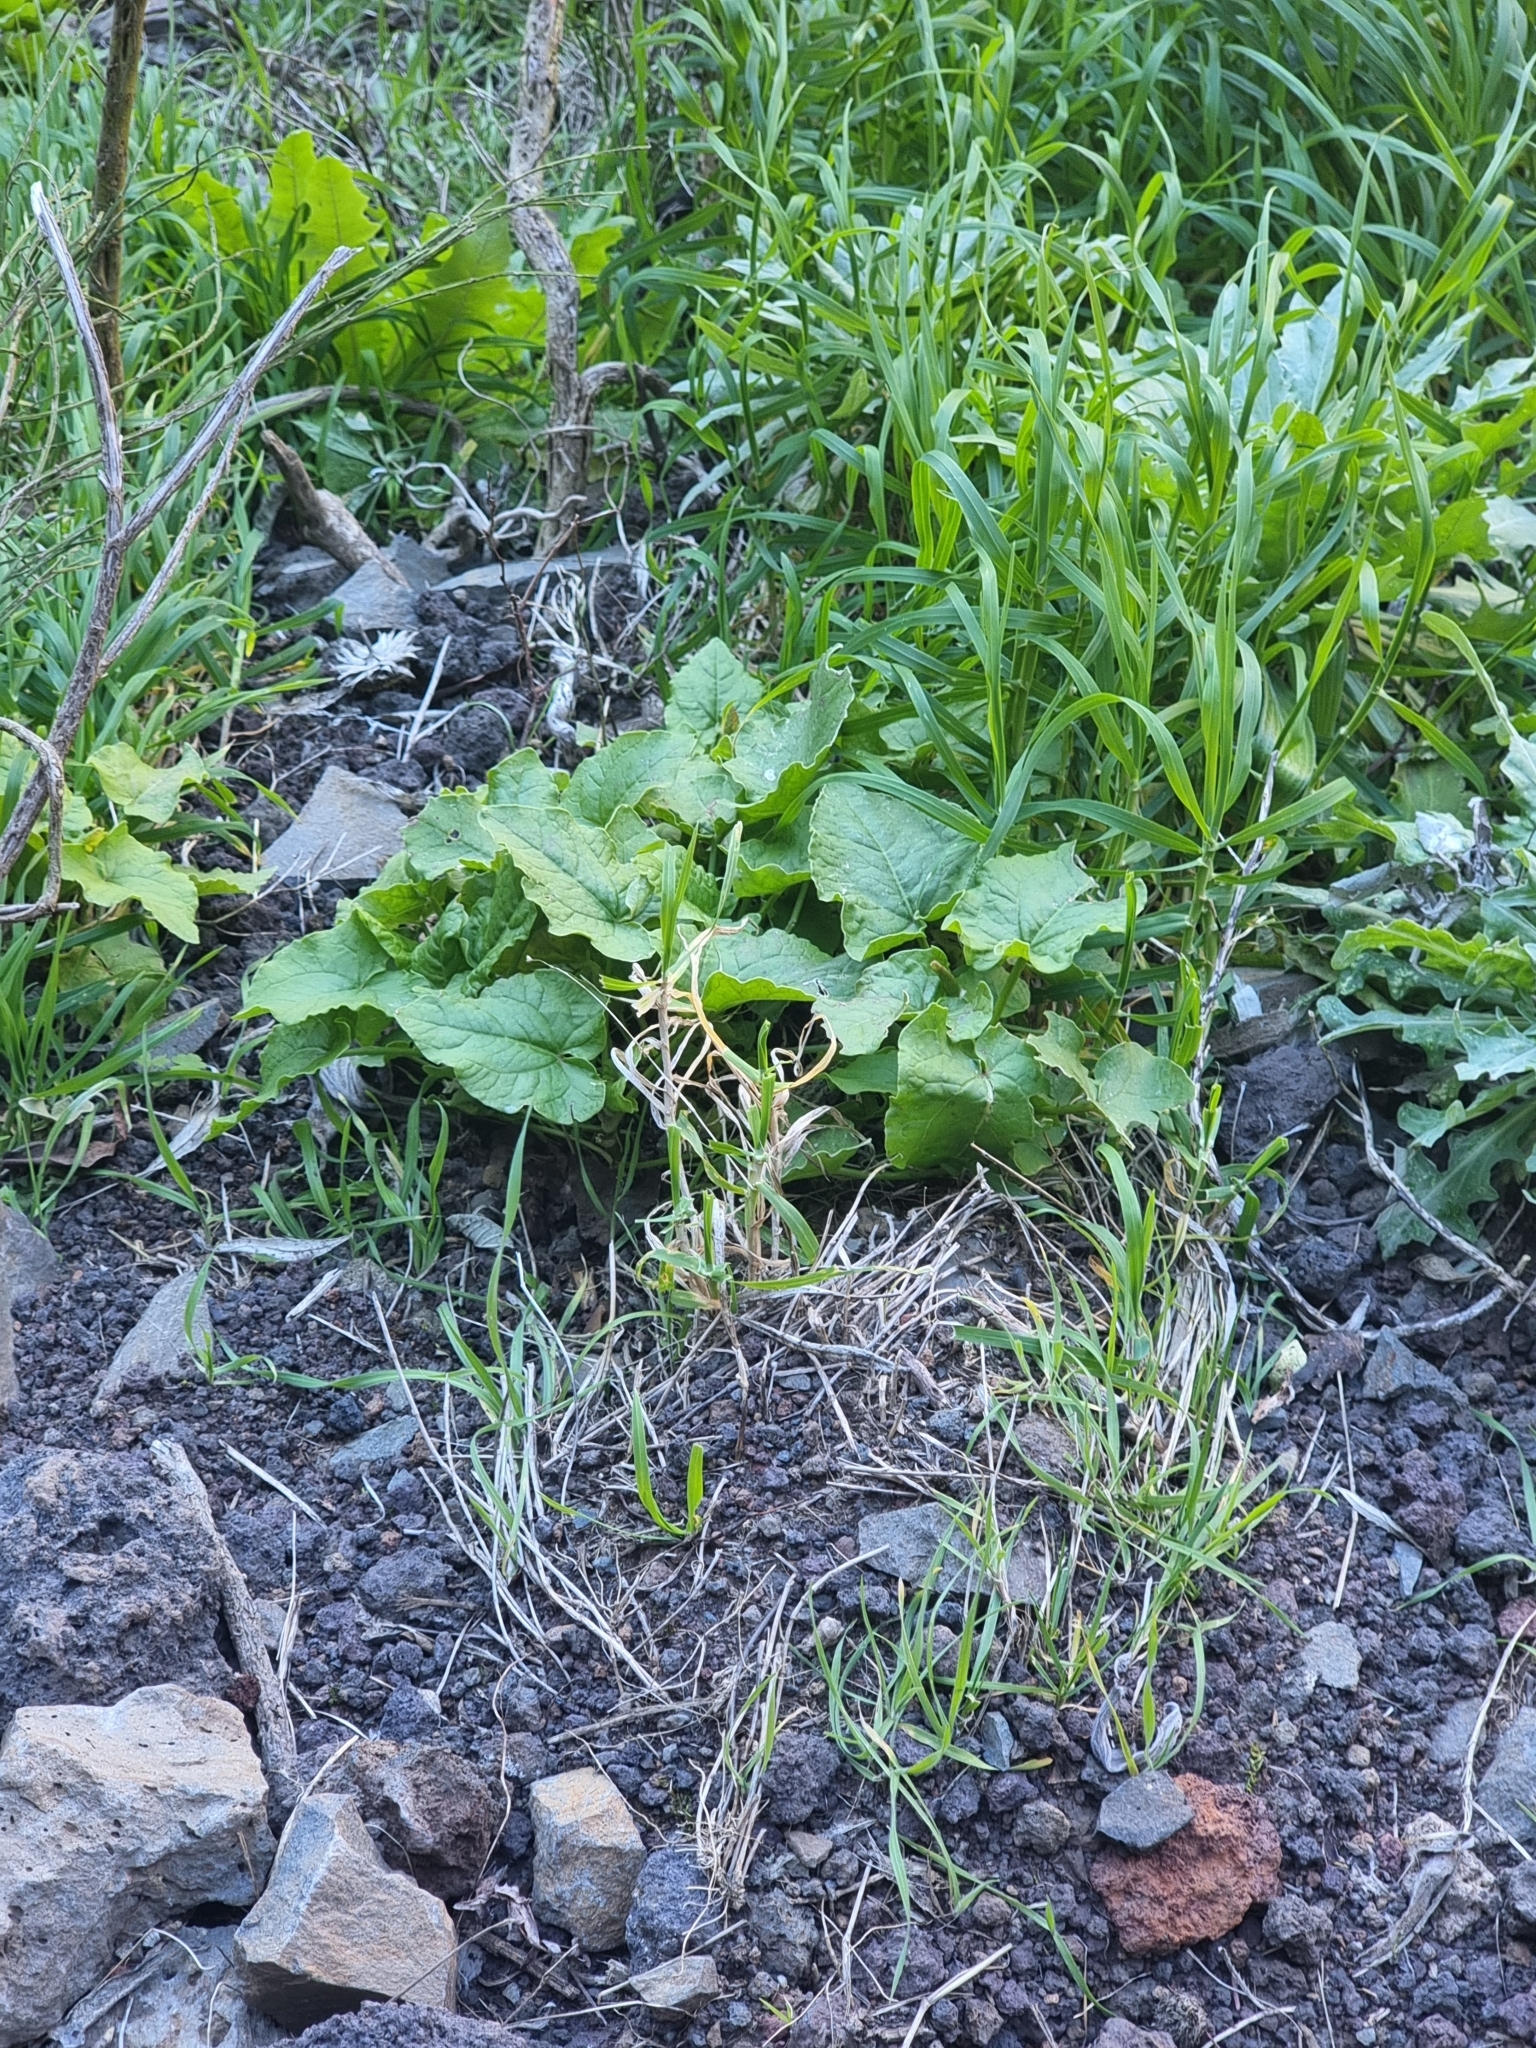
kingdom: Plantae
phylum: Tracheophyta
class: Magnoliopsida
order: Caryophyllales
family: Polygonaceae
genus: Rumex
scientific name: Rumex maderensis
